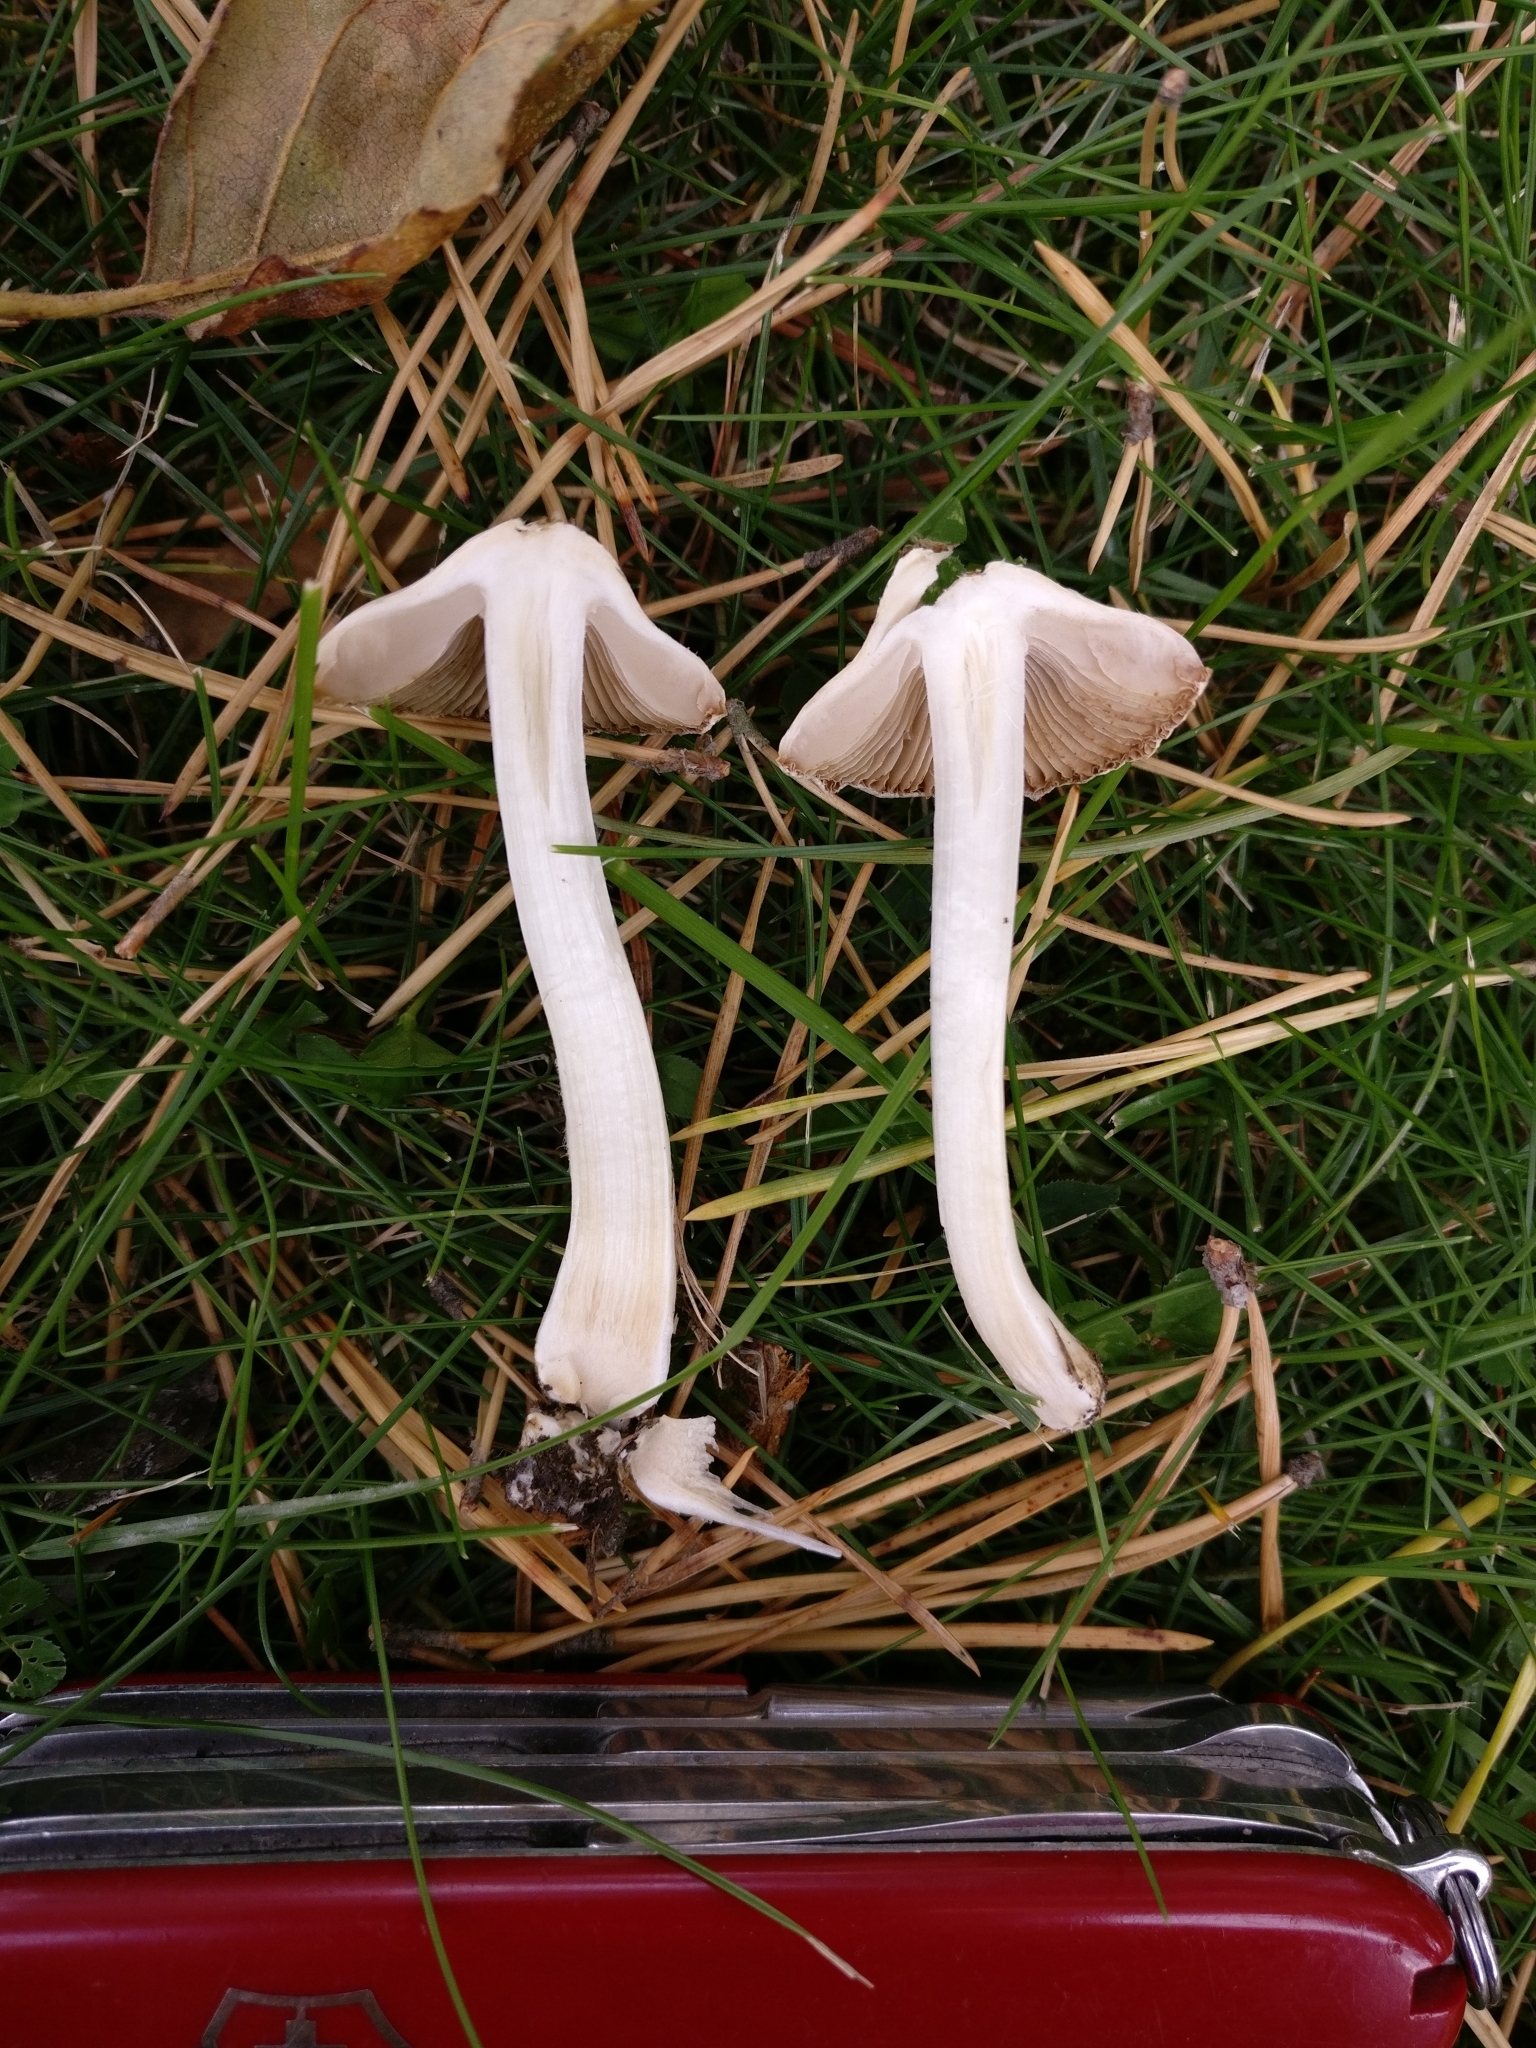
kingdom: Fungi
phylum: Basidiomycota
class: Agaricomycetes
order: Agaricales
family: Inocybaceae
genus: Inocybe
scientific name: Inocybe geophylla
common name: White fibrecap
